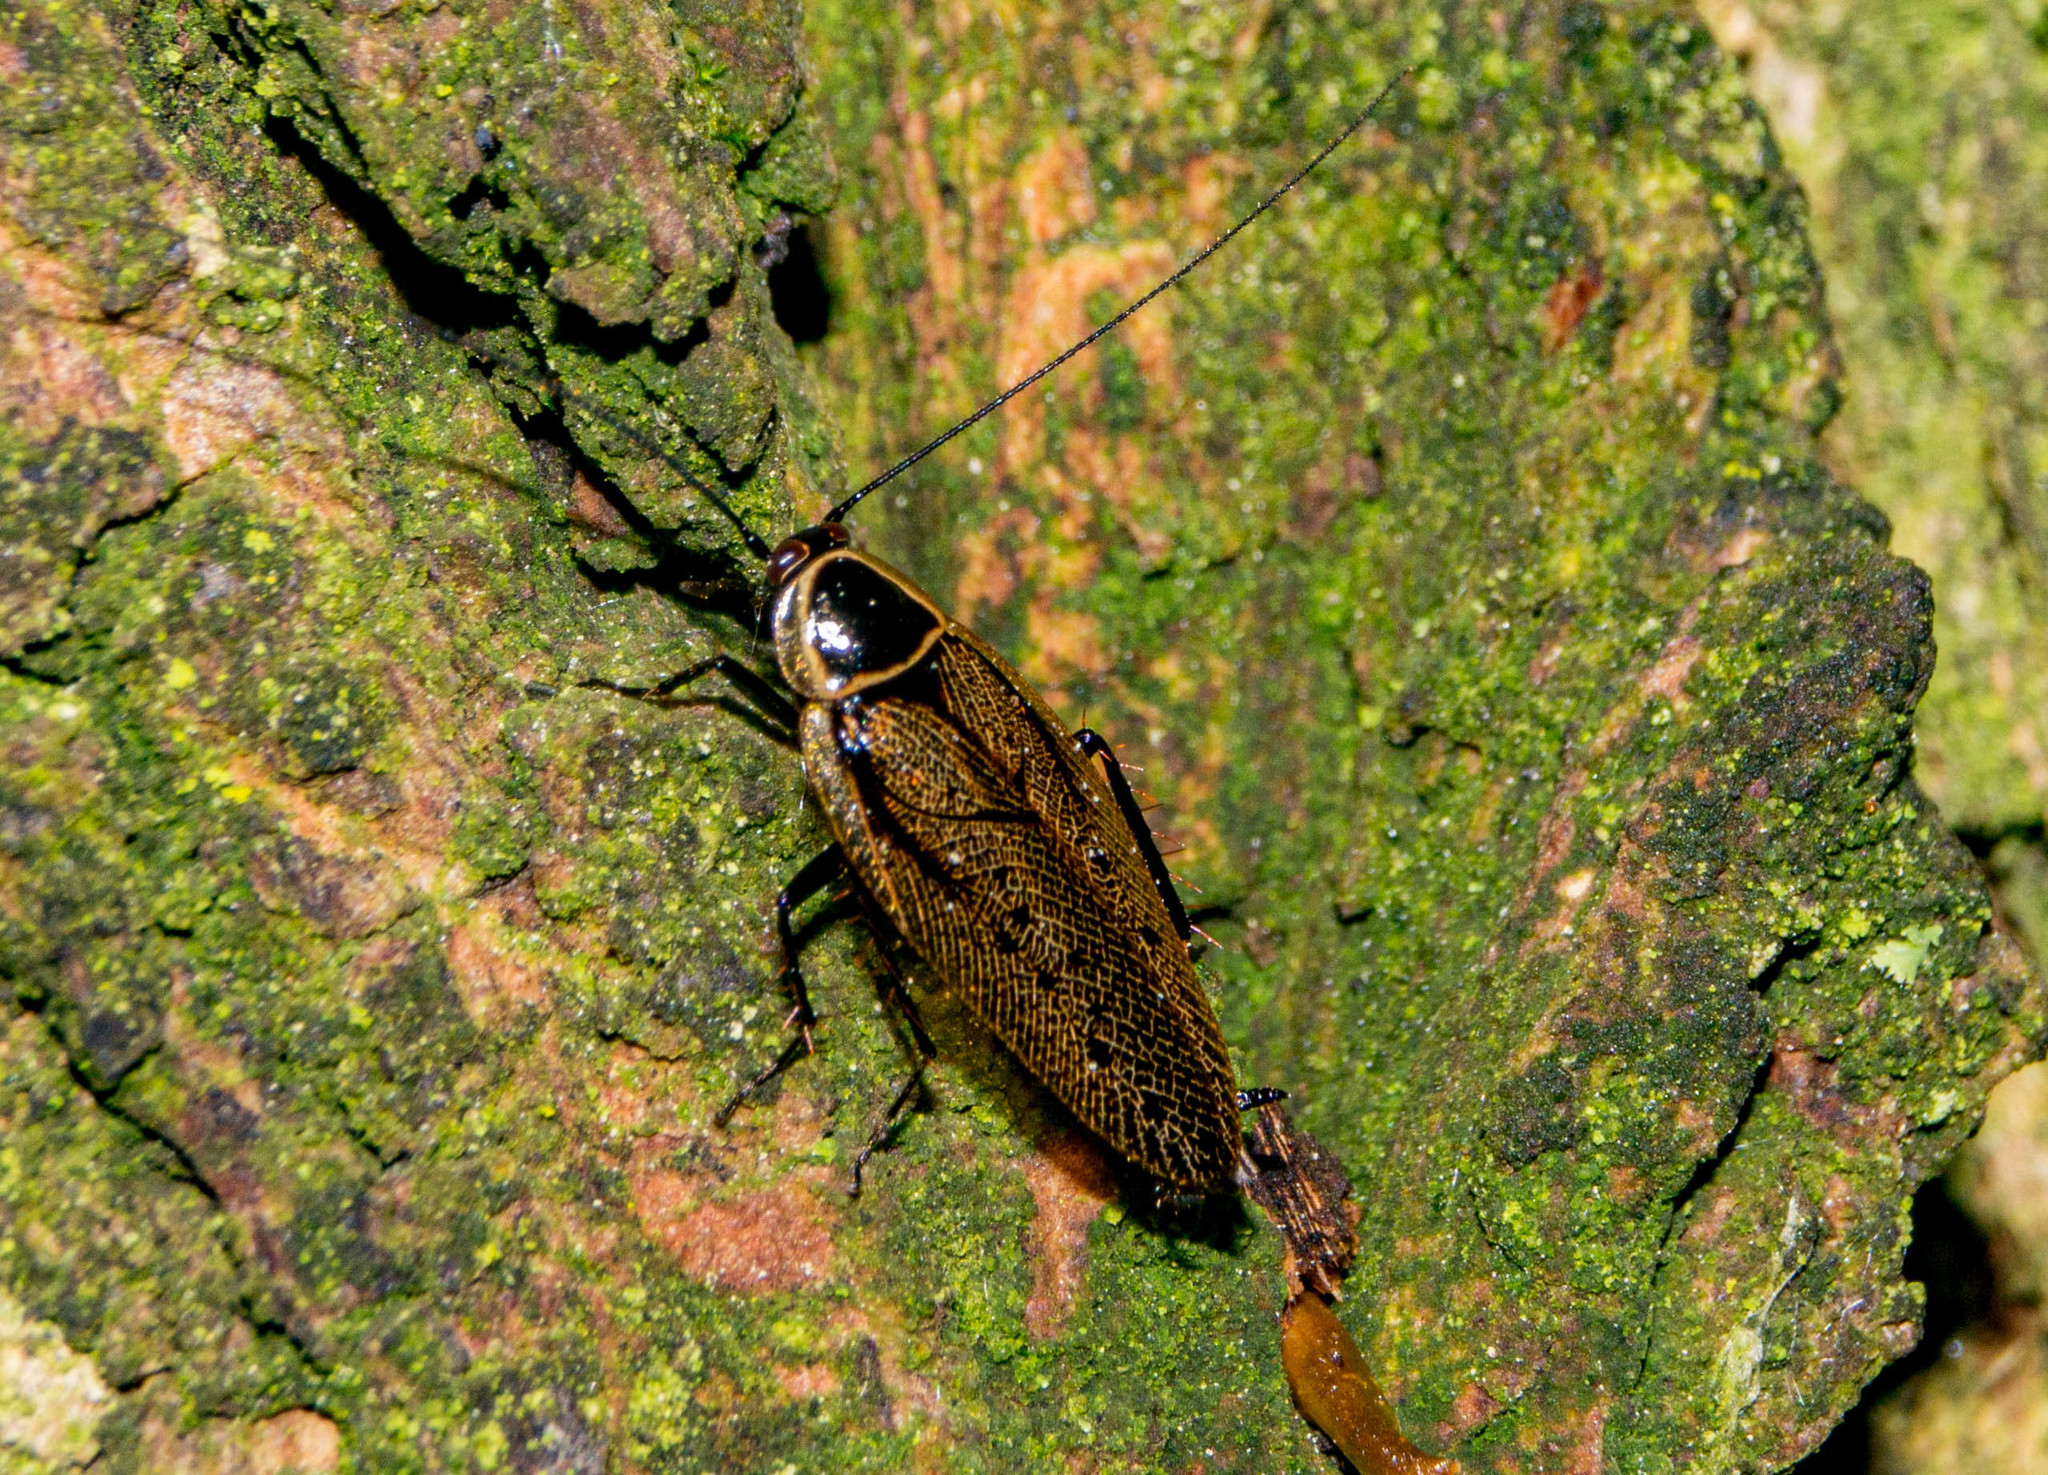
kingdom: Animalia
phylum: Arthropoda
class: Insecta
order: Blattodea
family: Ectobiidae
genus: Ectobius
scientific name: Ectobius sylvestris
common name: Forest cockroach
